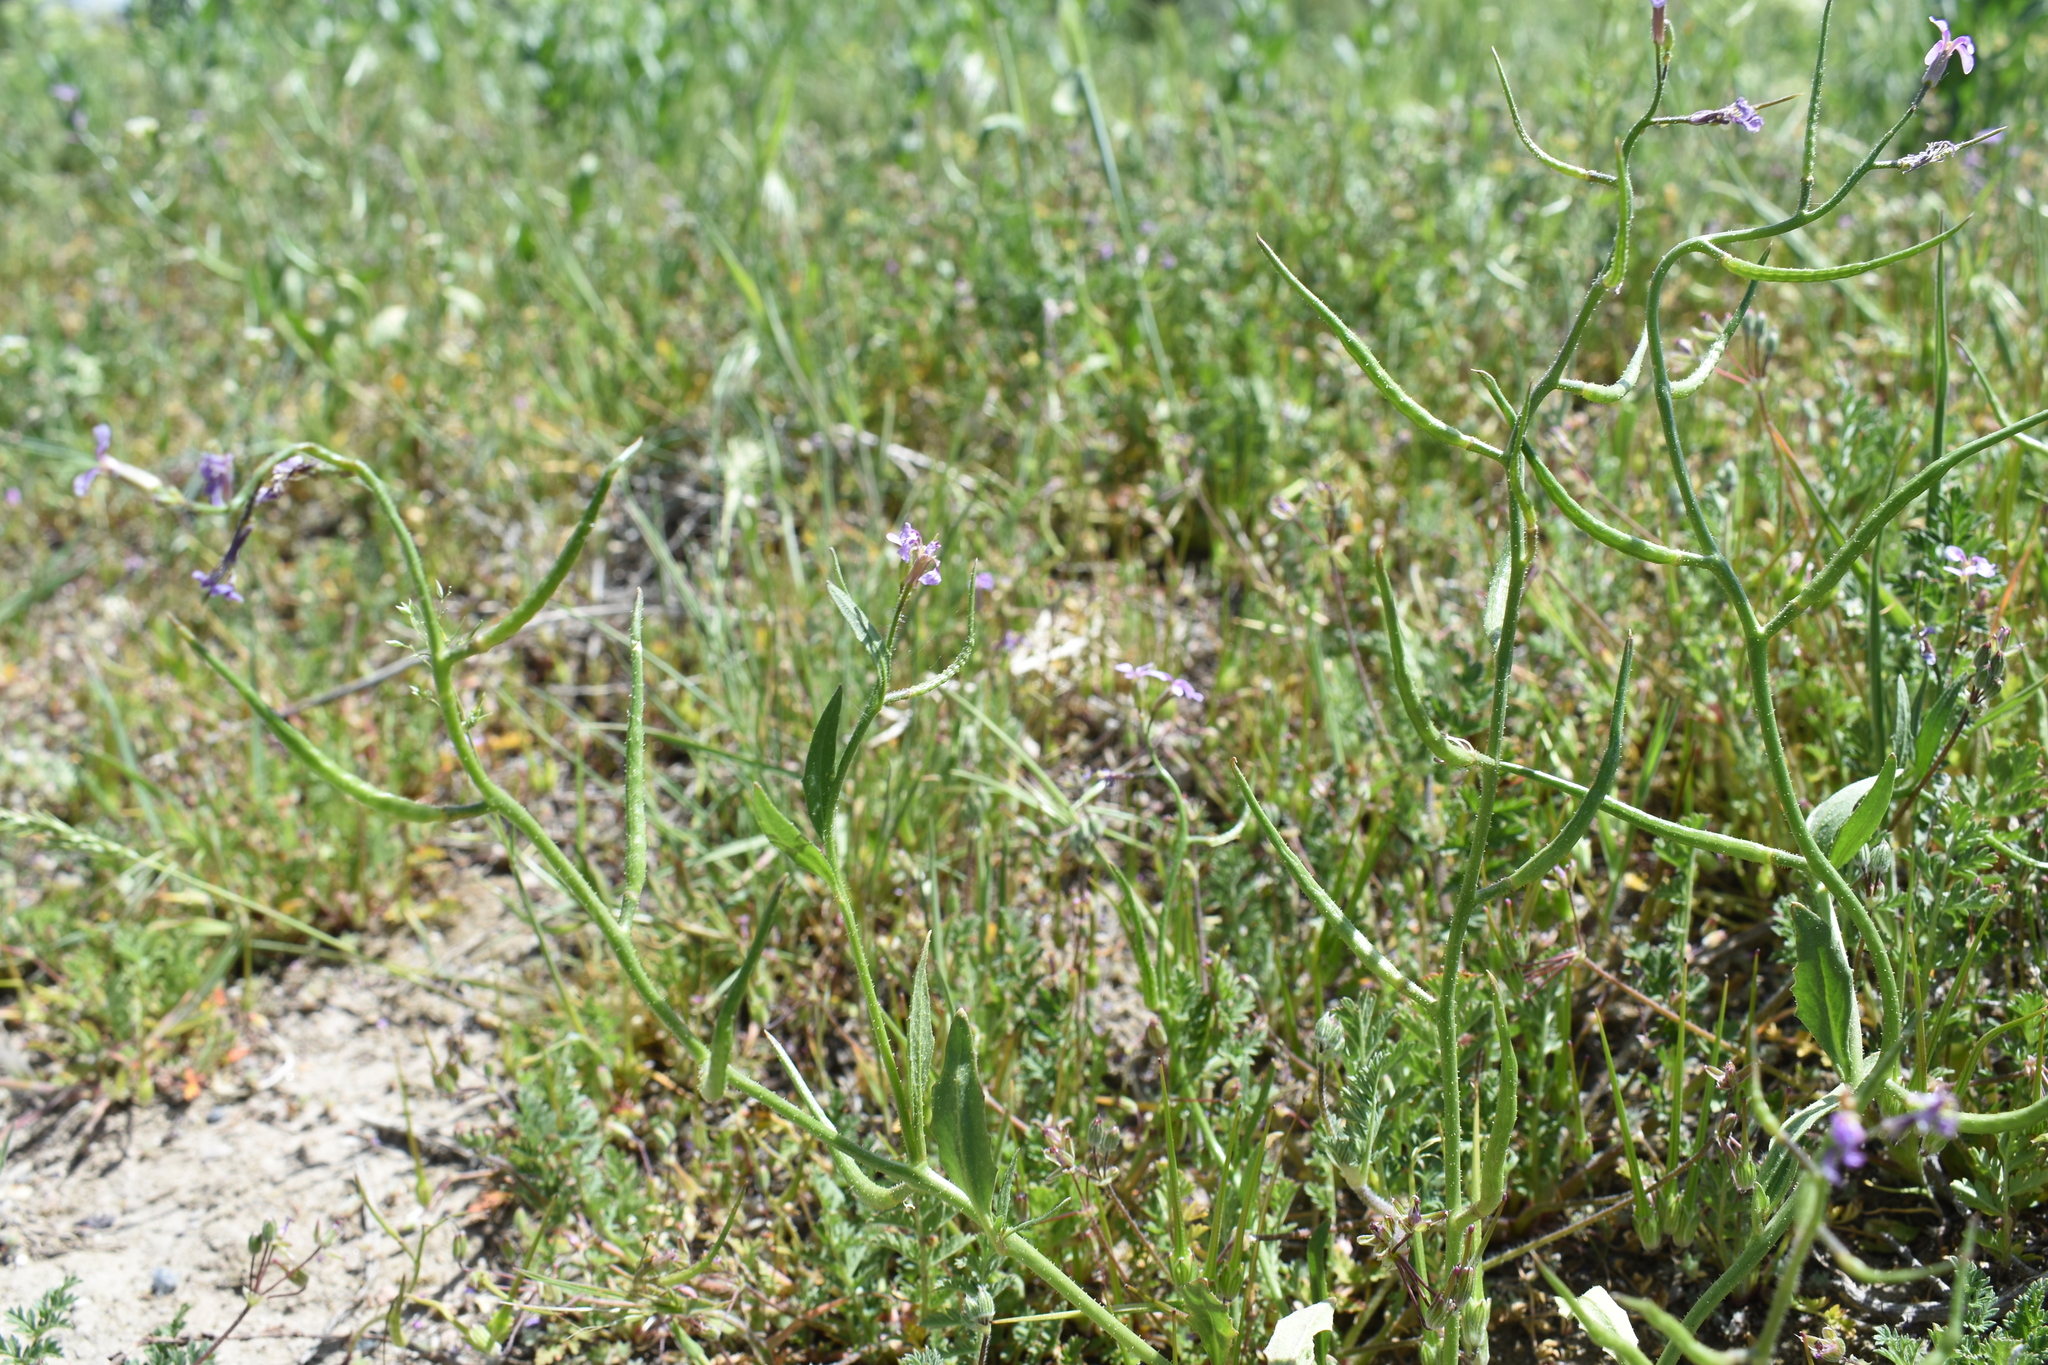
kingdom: Plantae
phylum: Tracheophyta
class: Magnoliopsida
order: Brassicales
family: Brassicaceae
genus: Chorispora
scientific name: Chorispora tenella
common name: Crossflower
